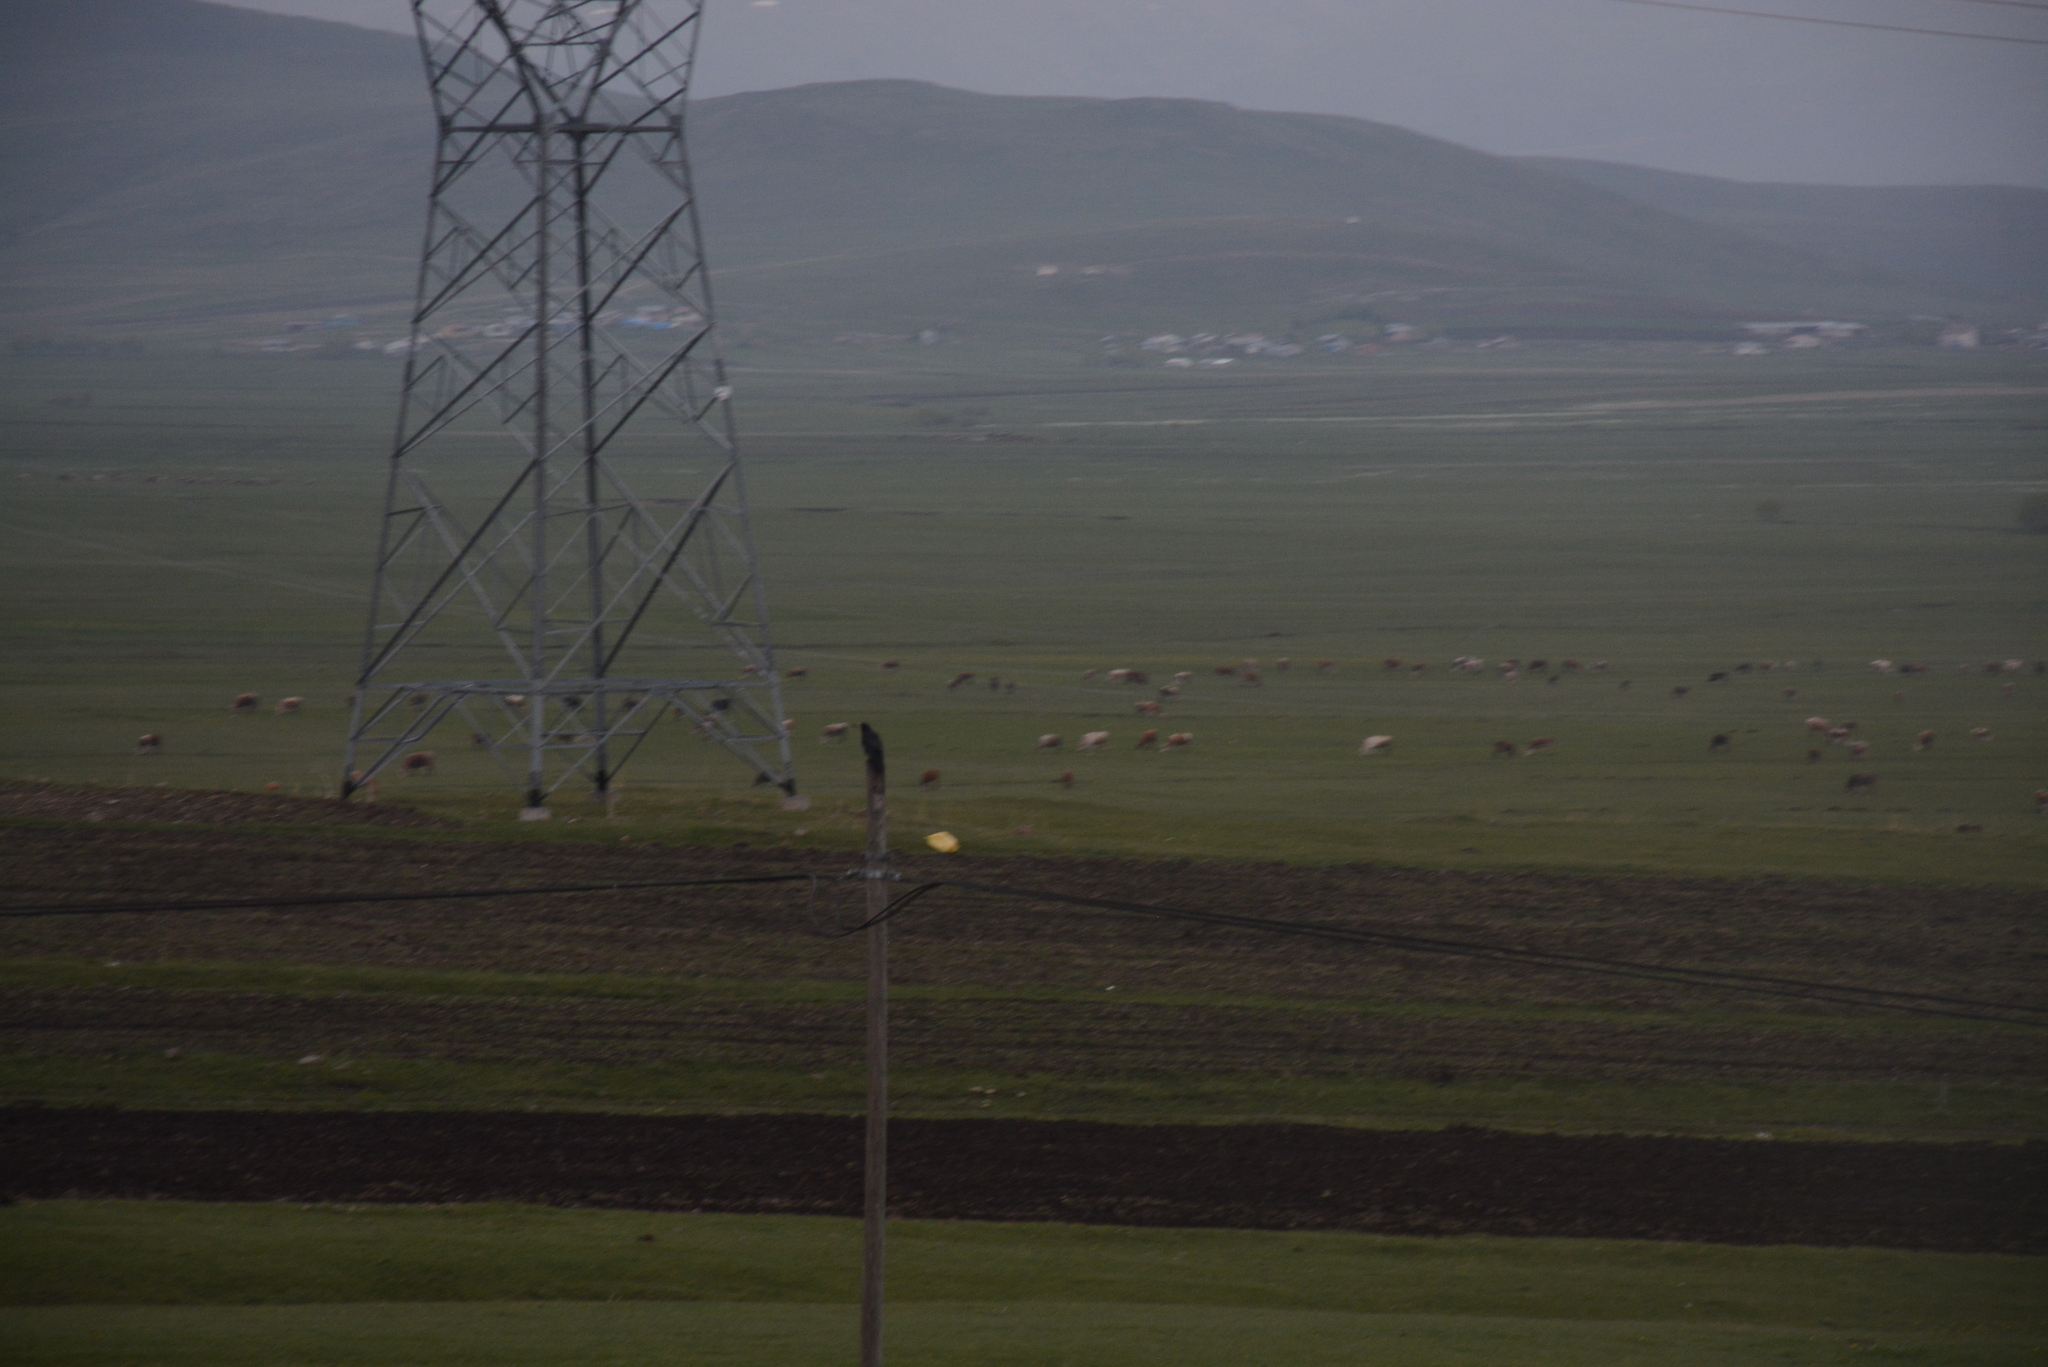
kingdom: Animalia
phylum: Chordata
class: Aves
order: Passeriformes
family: Corvidae
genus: Corvus
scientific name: Corvus frugilegus
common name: Rook
